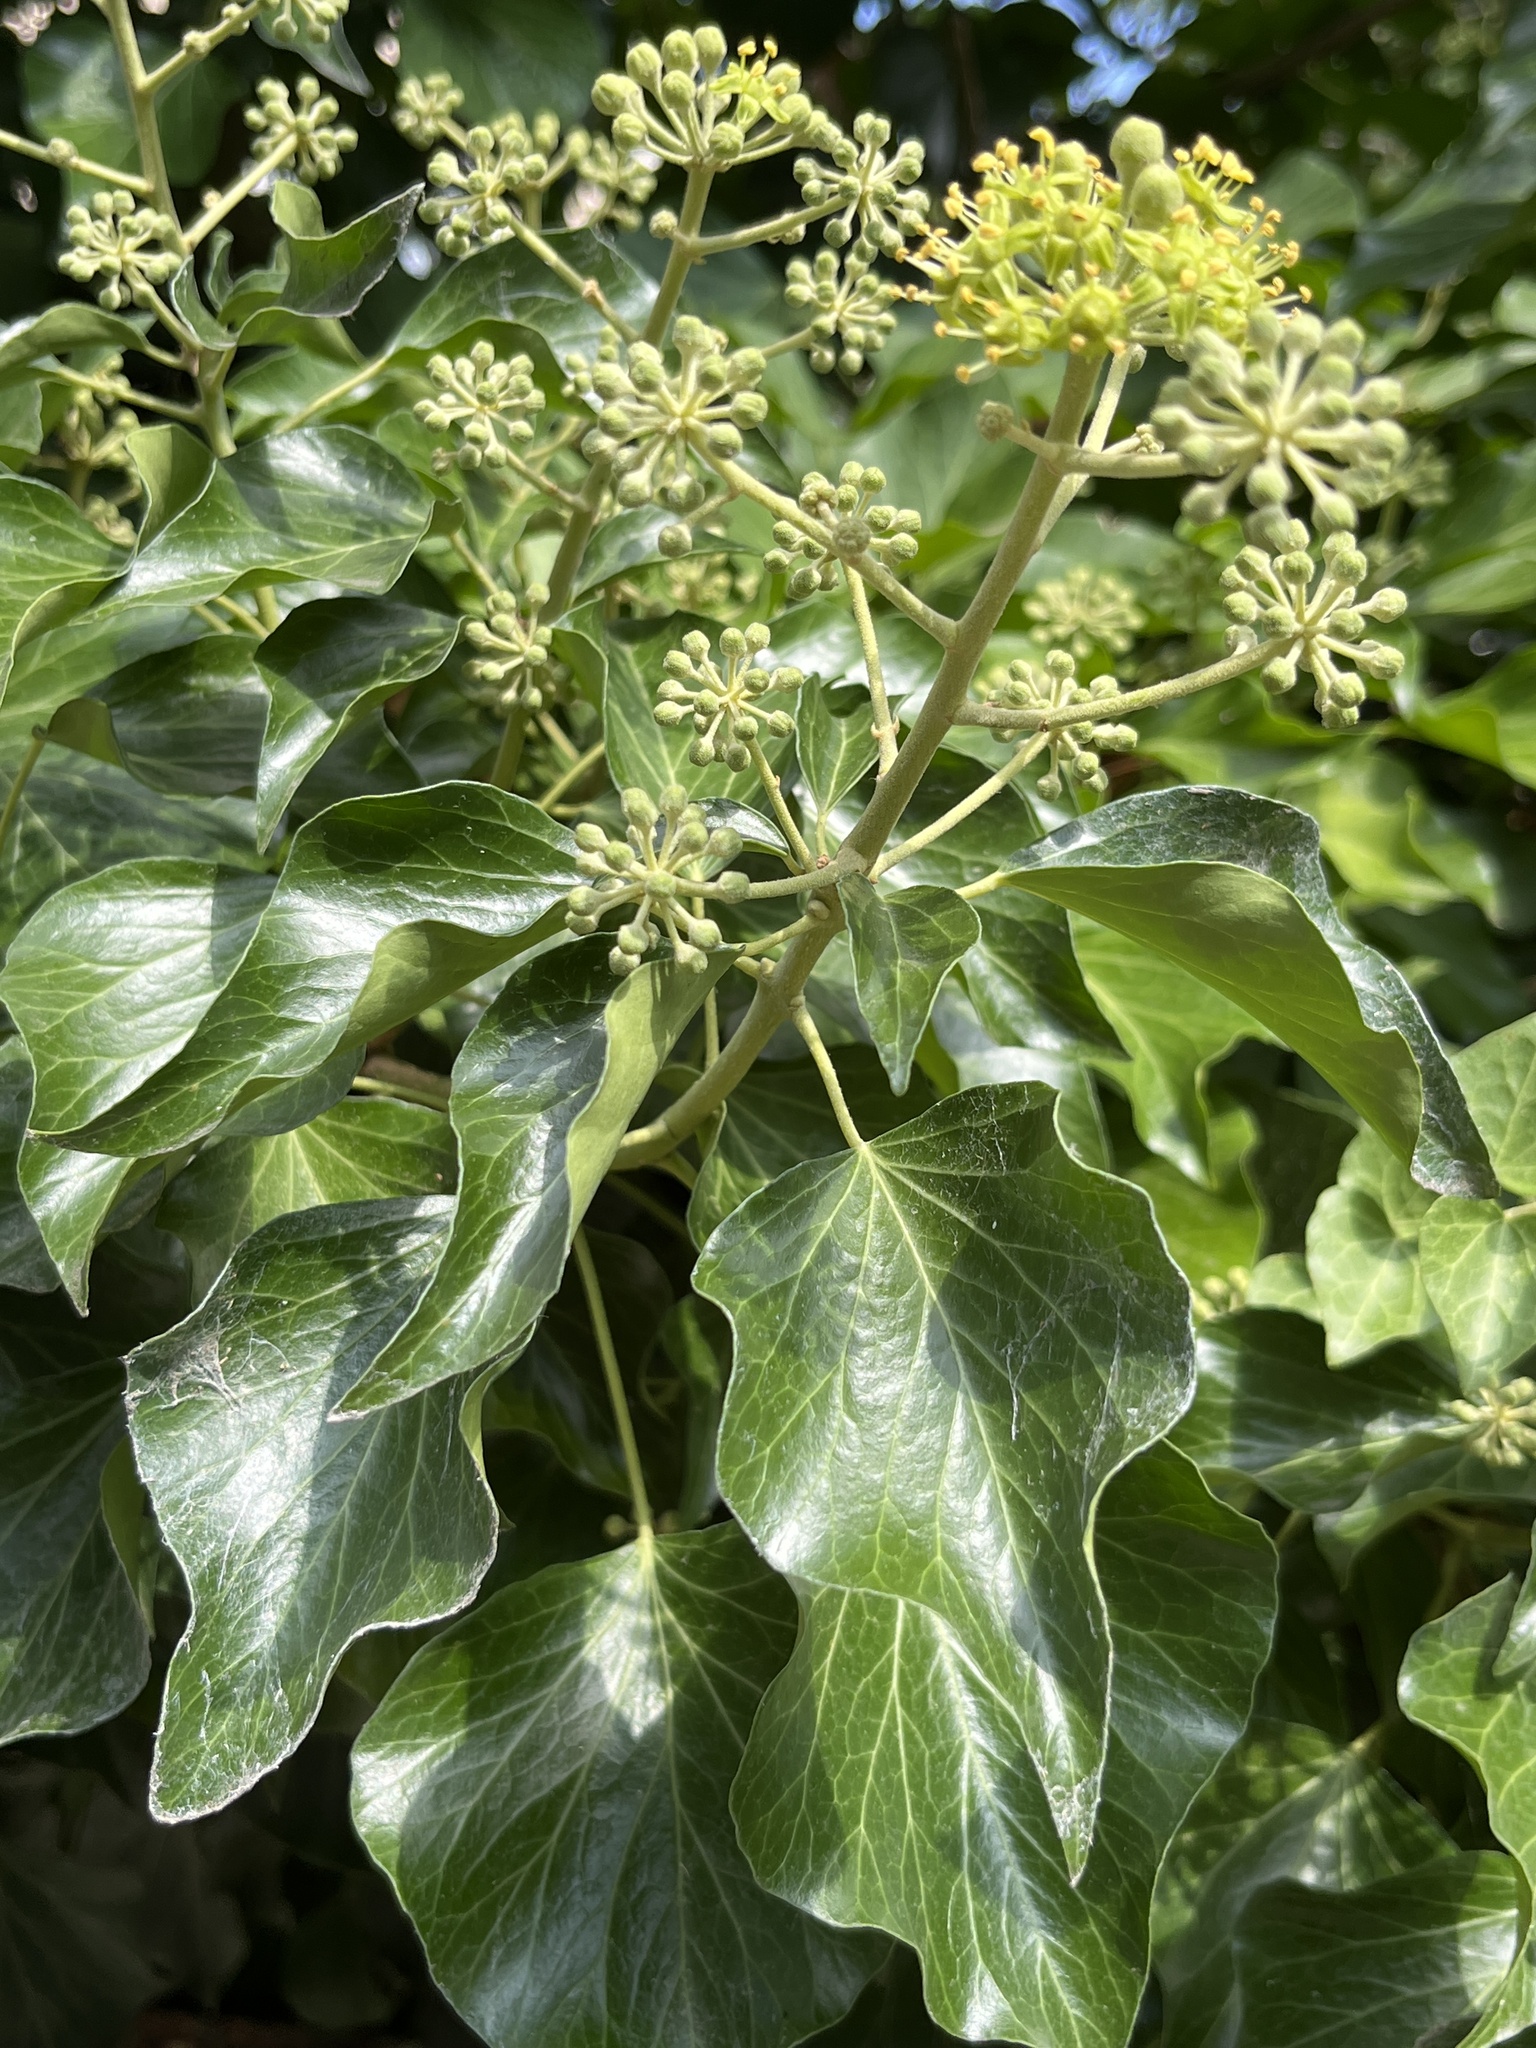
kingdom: Plantae
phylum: Tracheophyta
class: Magnoliopsida
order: Apiales
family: Araliaceae
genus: Hedera
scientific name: Hedera helix
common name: Ivy
